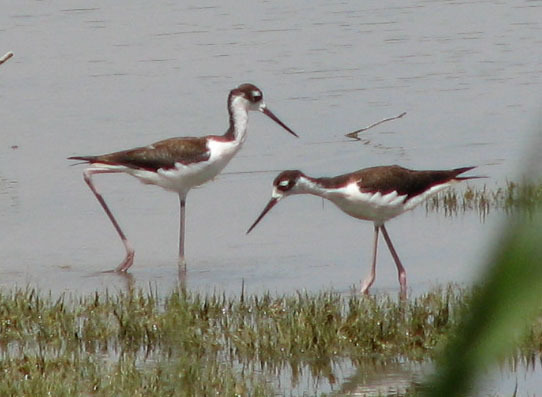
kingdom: Animalia
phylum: Chordata
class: Aves
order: Charadriiformes
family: Recurvirostridae
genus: Himantopus
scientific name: Himantopus mexicanus
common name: Black-necked stilt
